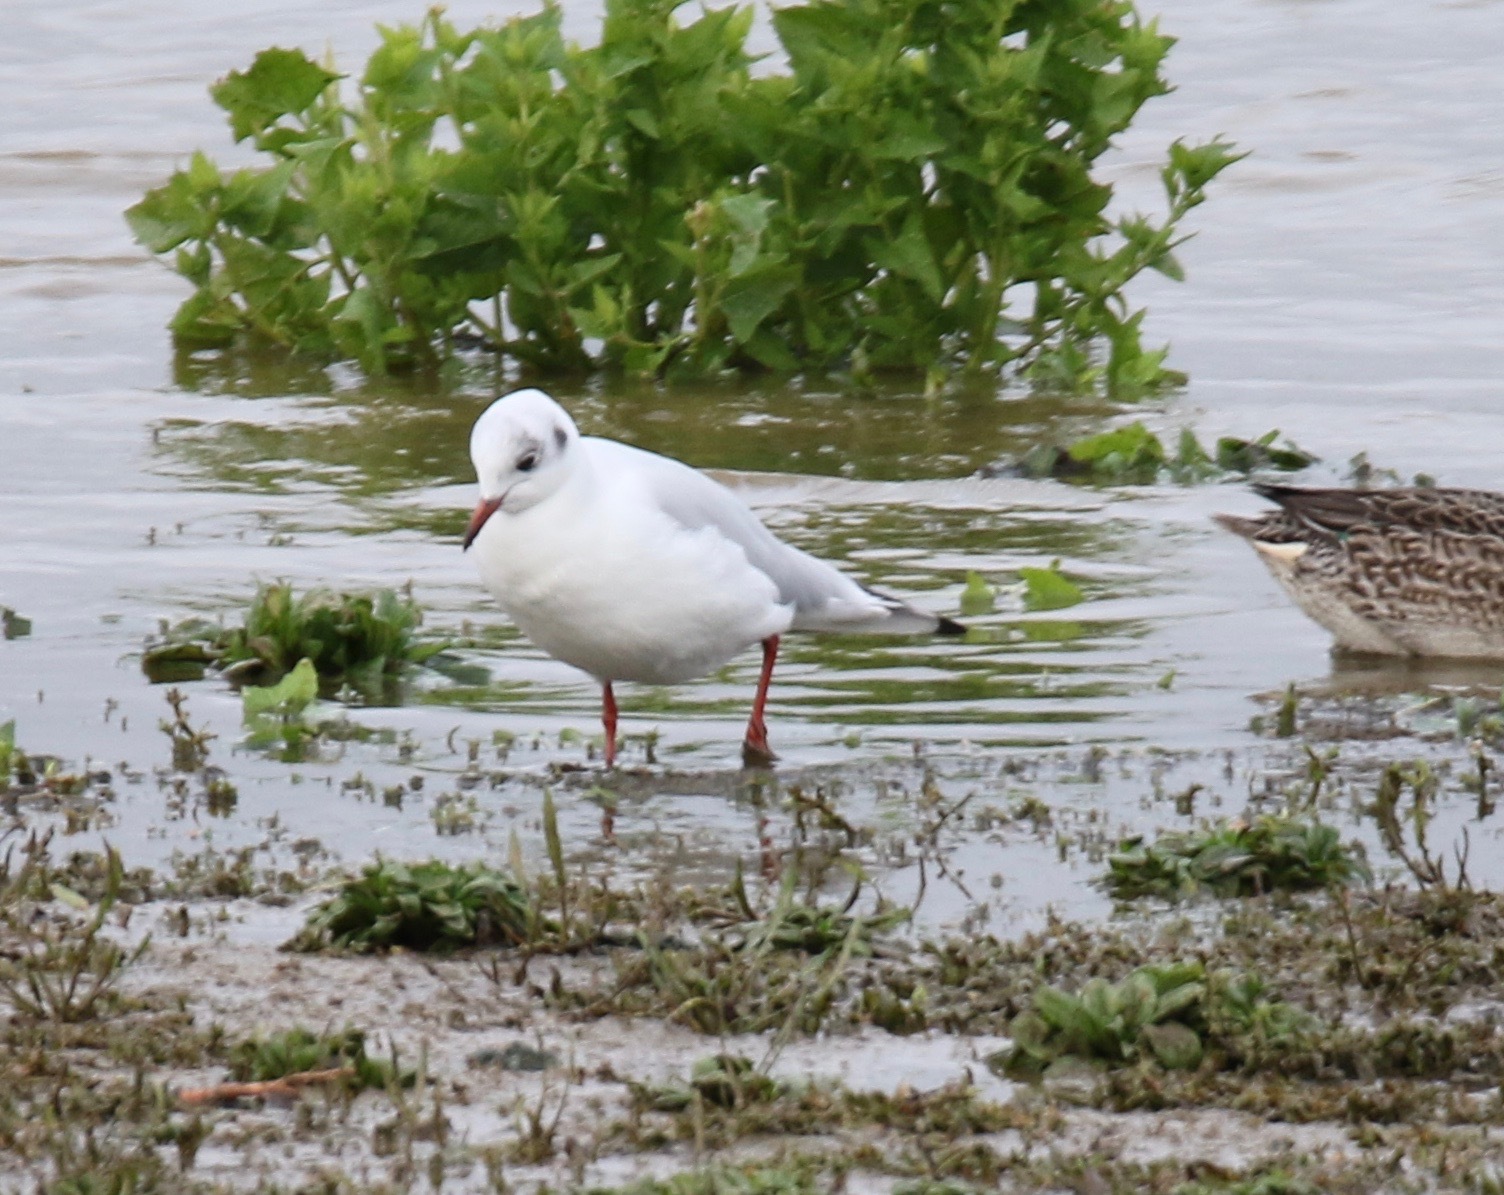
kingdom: Animalia
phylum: Chordata
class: Aves
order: Charadriiformes
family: Laridae
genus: Chroicocephalus
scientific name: Chroicocephalus ridibundus
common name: Black-headed gull
